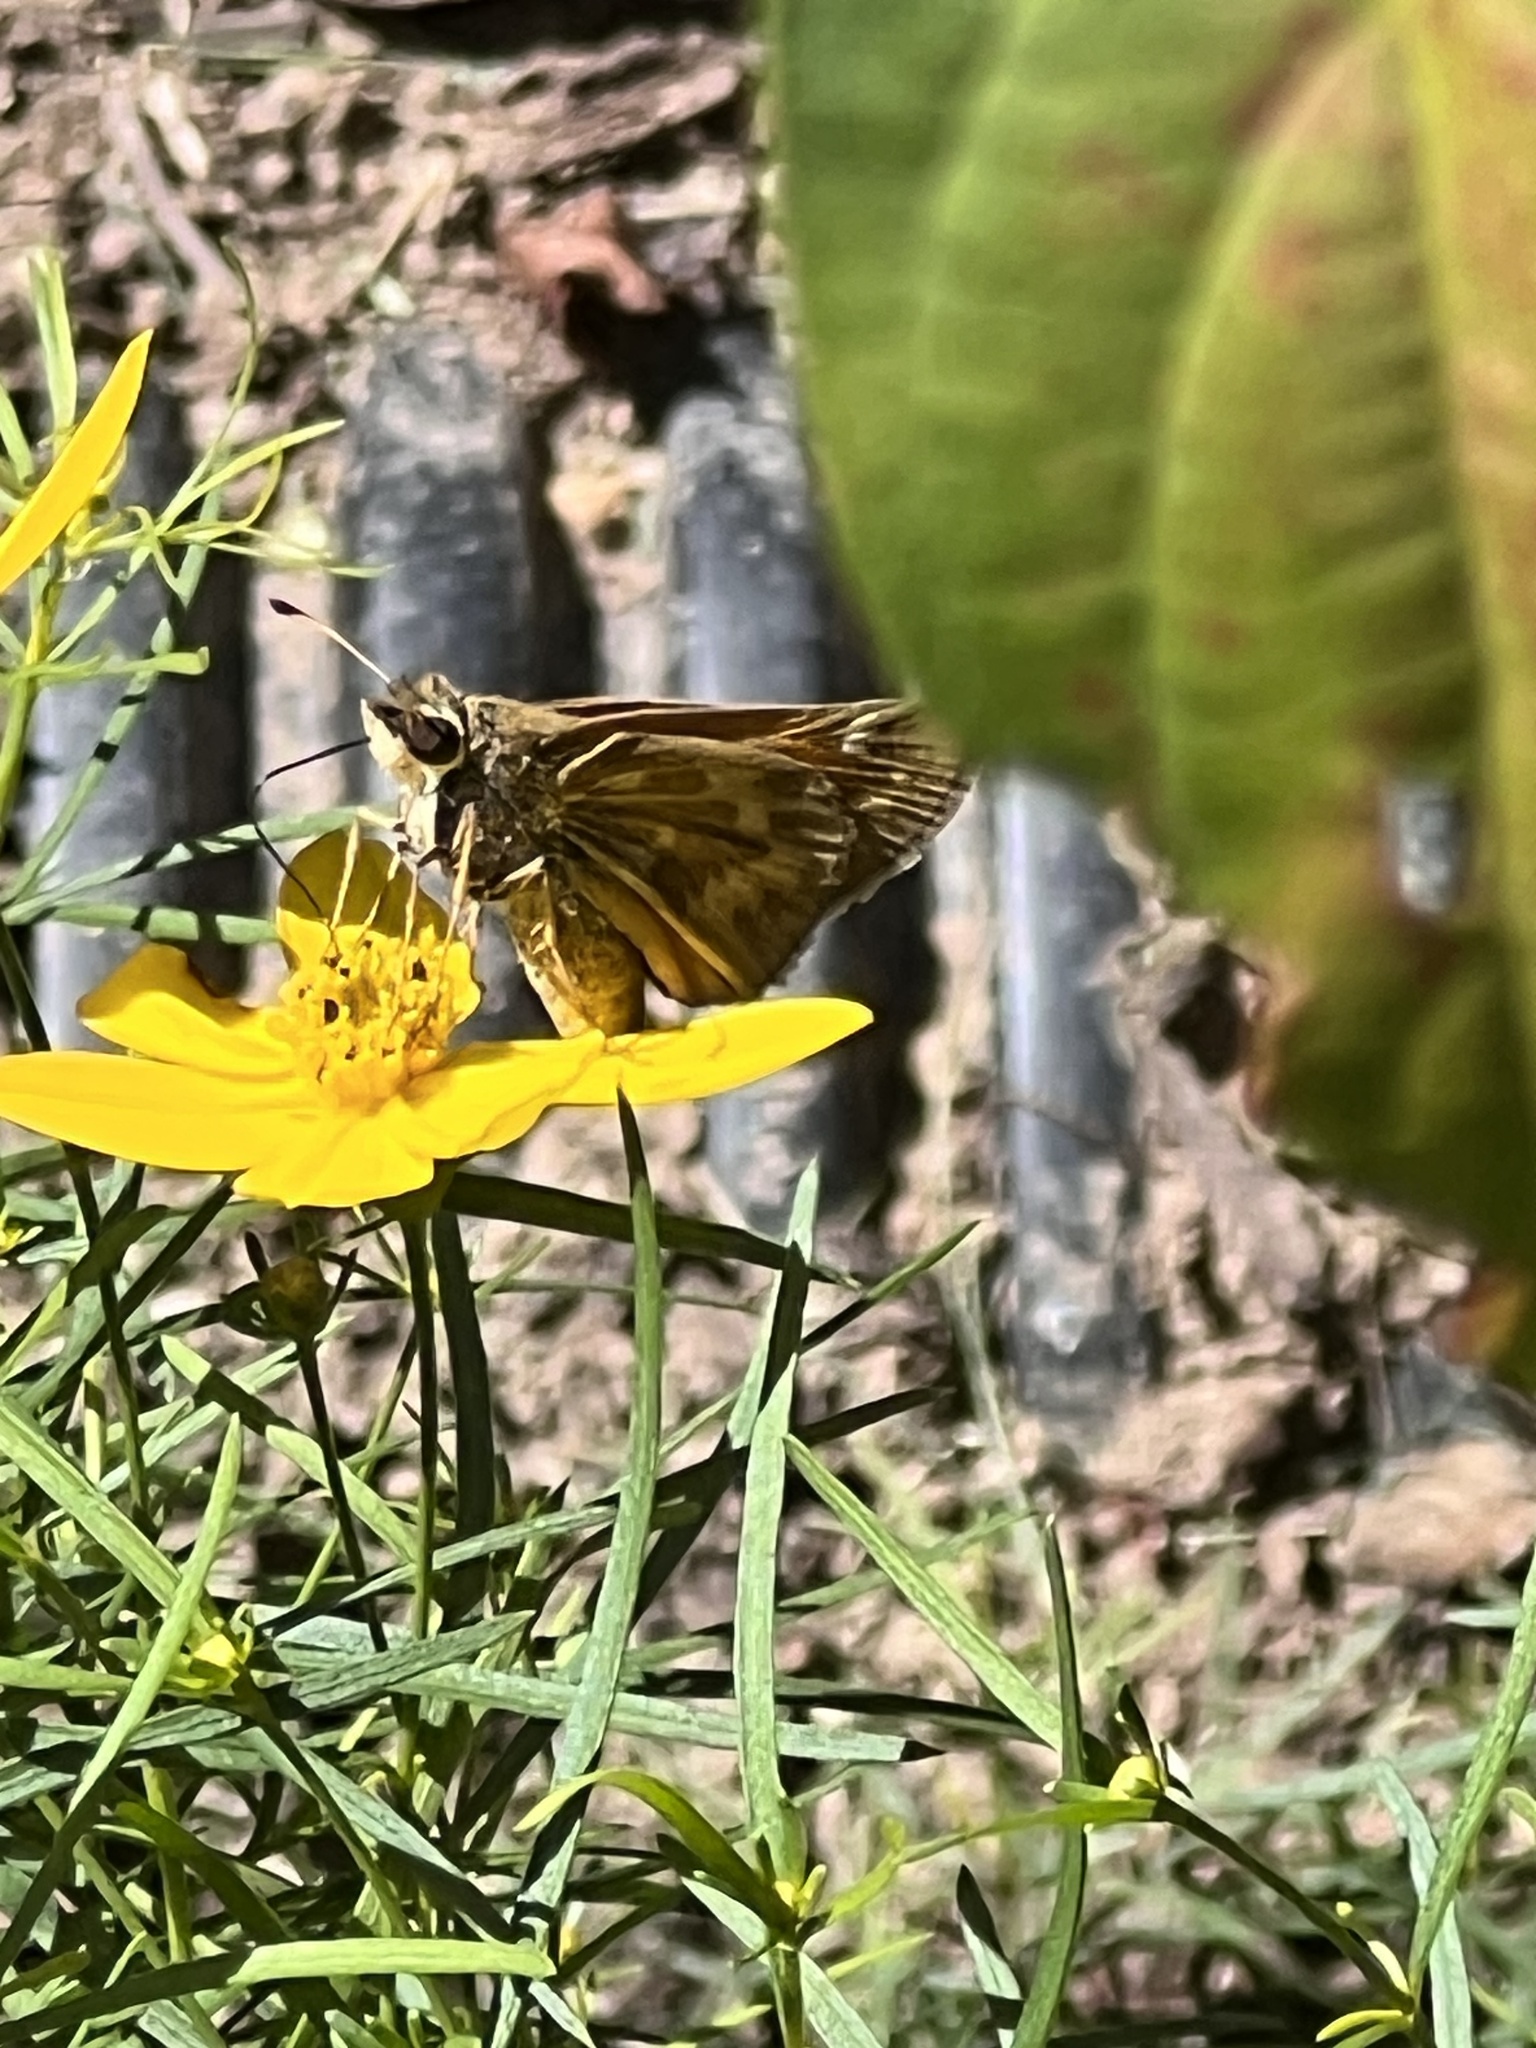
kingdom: Animalia
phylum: Arthropoda
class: Insecta
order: Lepidoptera
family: Hesperiidae
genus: Atalopedes
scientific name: Atalopedes
